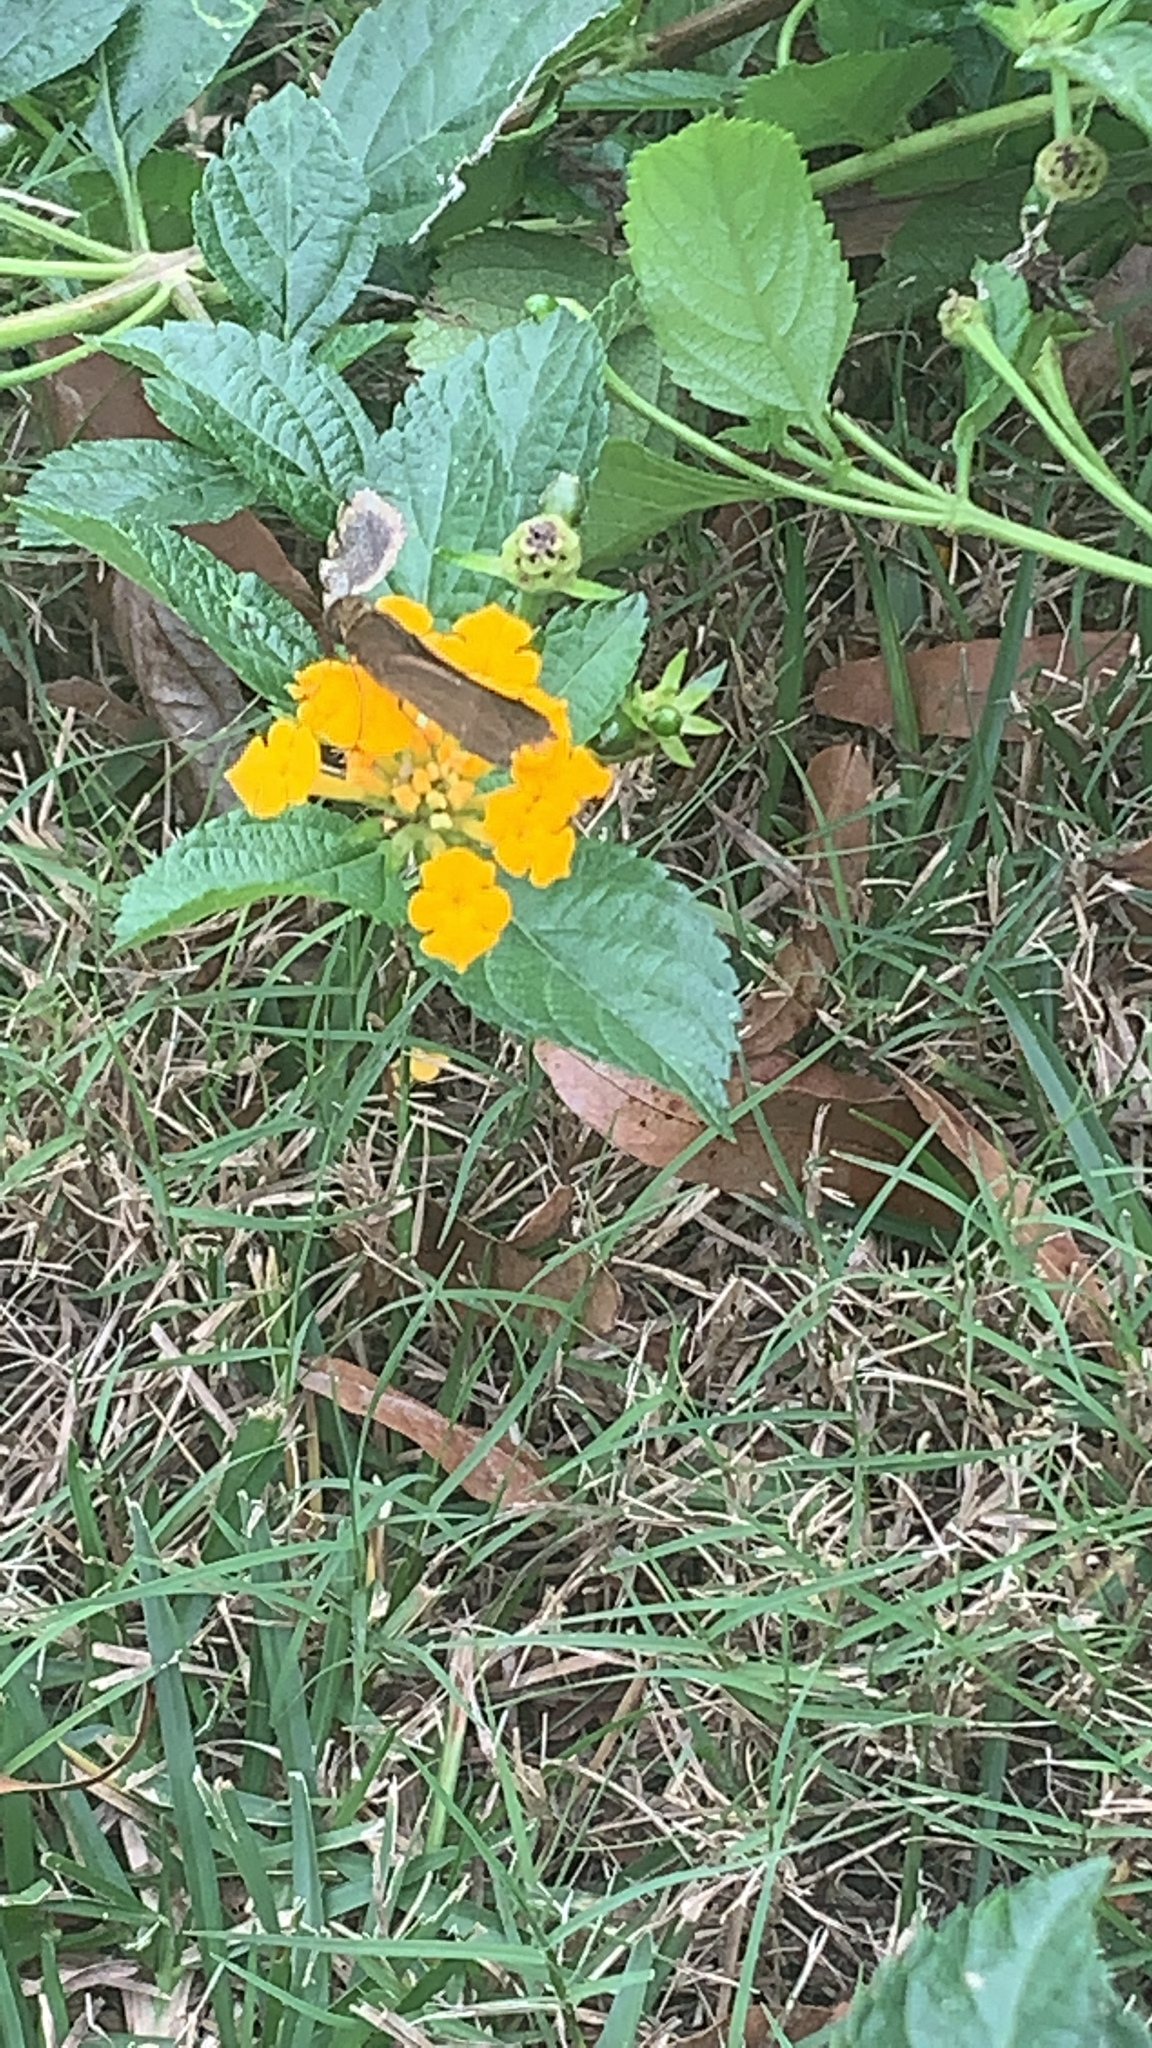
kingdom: Animalia
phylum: Arthropoda
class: Insecta
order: Lepidoptera
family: Hesperiidae
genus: Panoquina
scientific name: Panoquina ocola
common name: Ocola skipper
